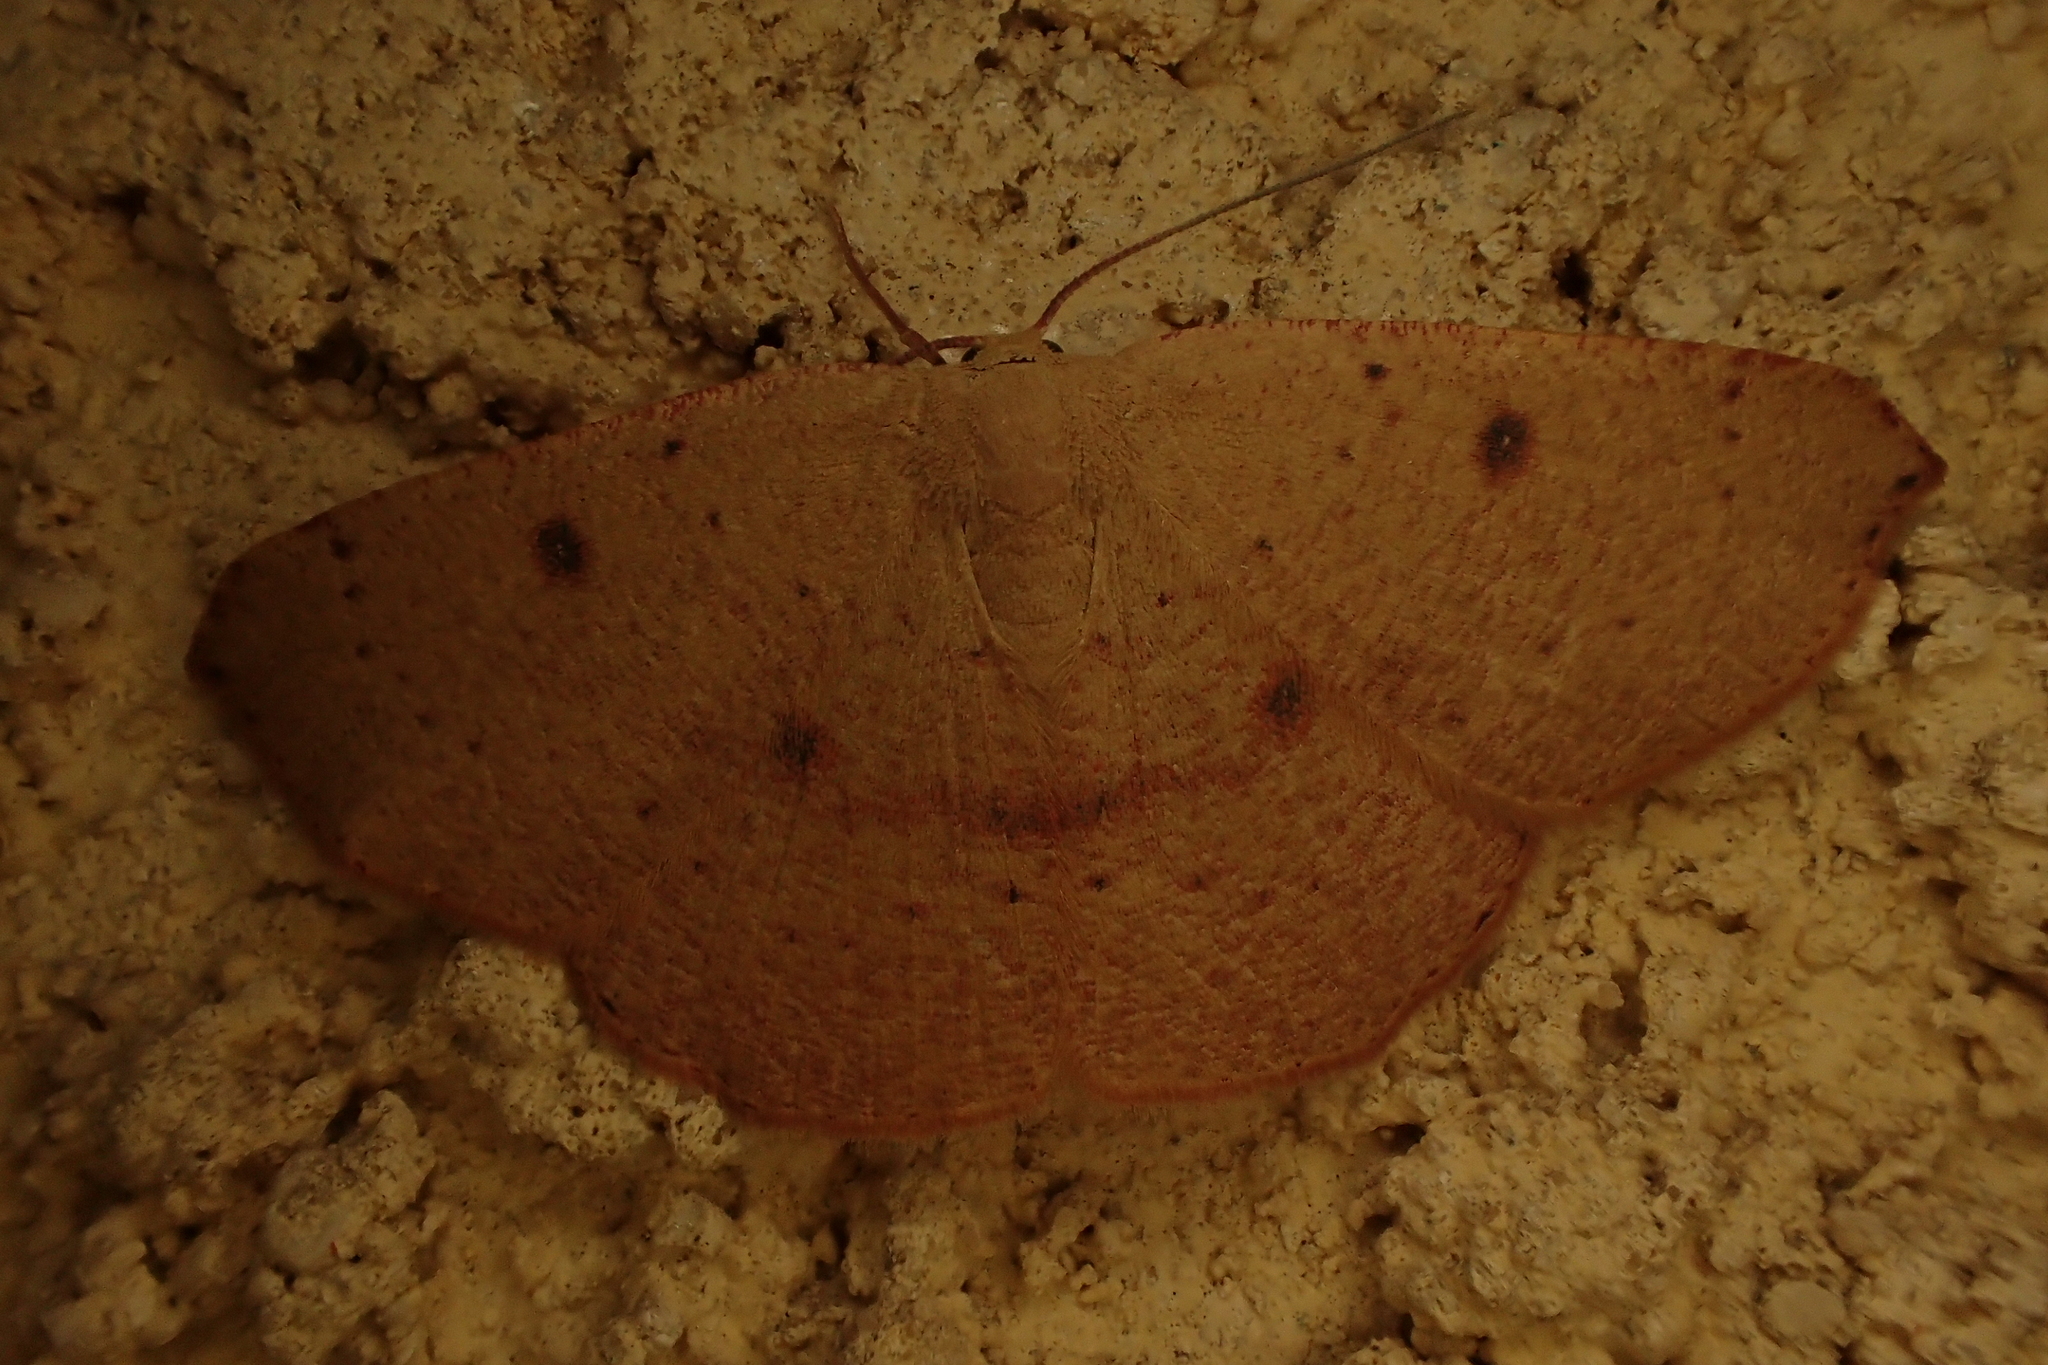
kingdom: Animalia
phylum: Arthropoda
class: Insecta
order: Lepidoptera
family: Geometridae
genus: Cyclophora
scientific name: Cyclophora puppillaria
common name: Blair's mocha
